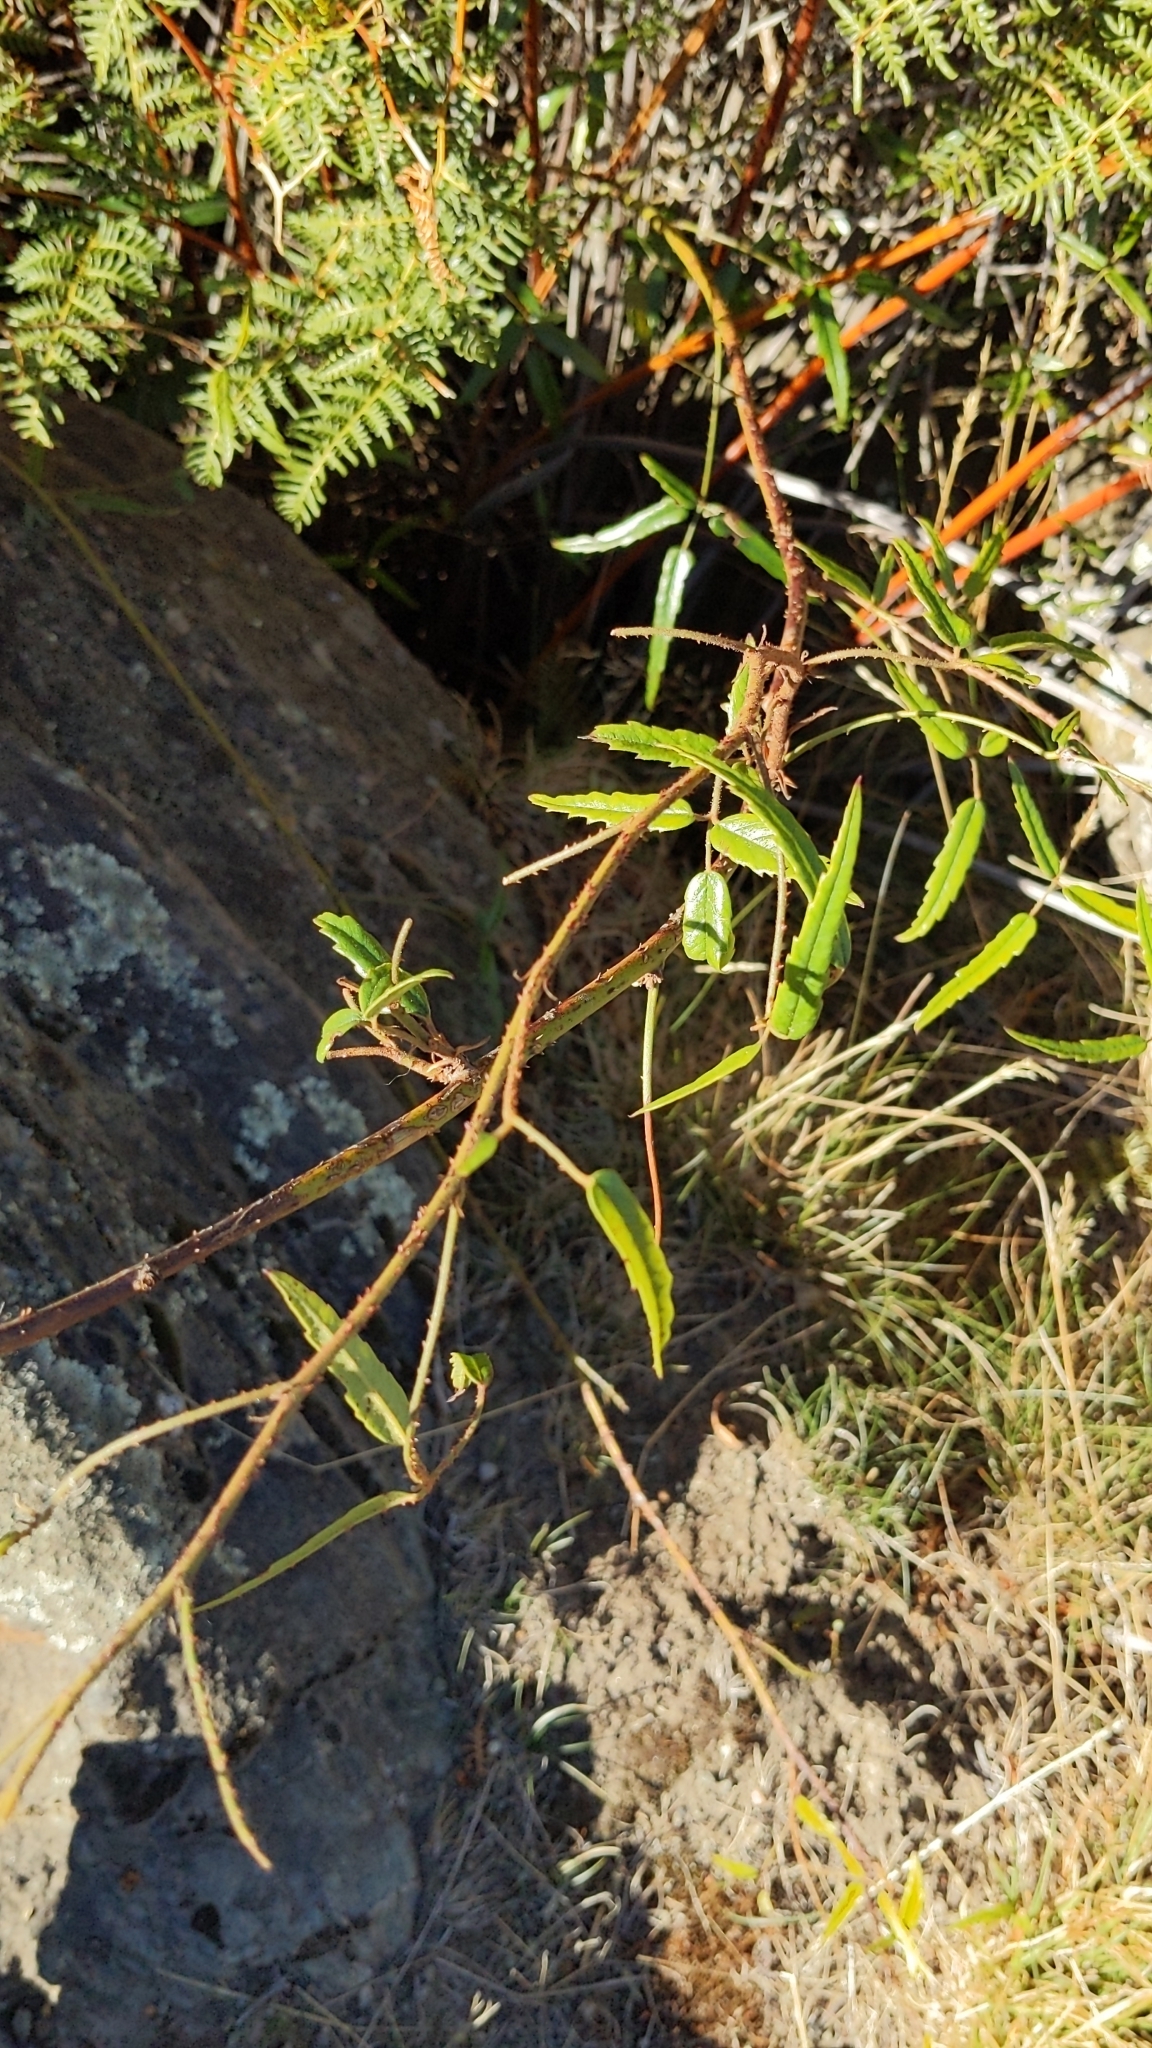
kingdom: Plantae
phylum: Tracheophyta
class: Magnoliopsida
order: Rosales
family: Rosaceae
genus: Rubus
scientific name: Rubus schmidelioides
